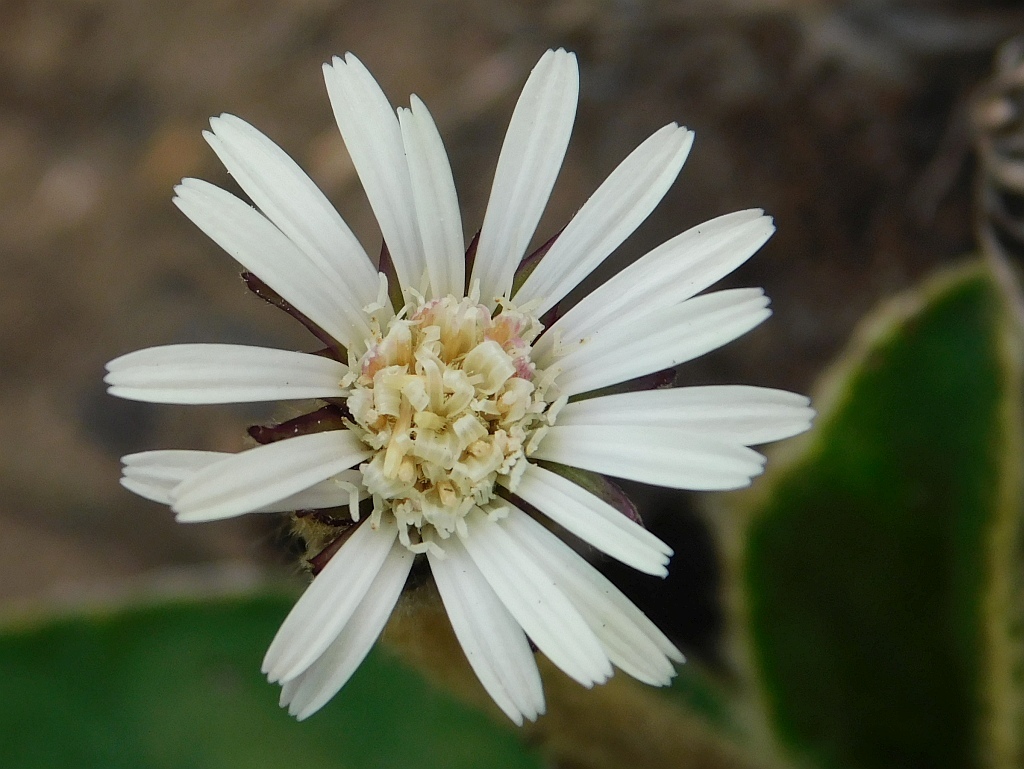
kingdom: Plantae
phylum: Tracheophyta
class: Magnoliopsida
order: Asterales
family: Asteraceae
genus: Piloselloides
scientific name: Piloselloides hirsuta
